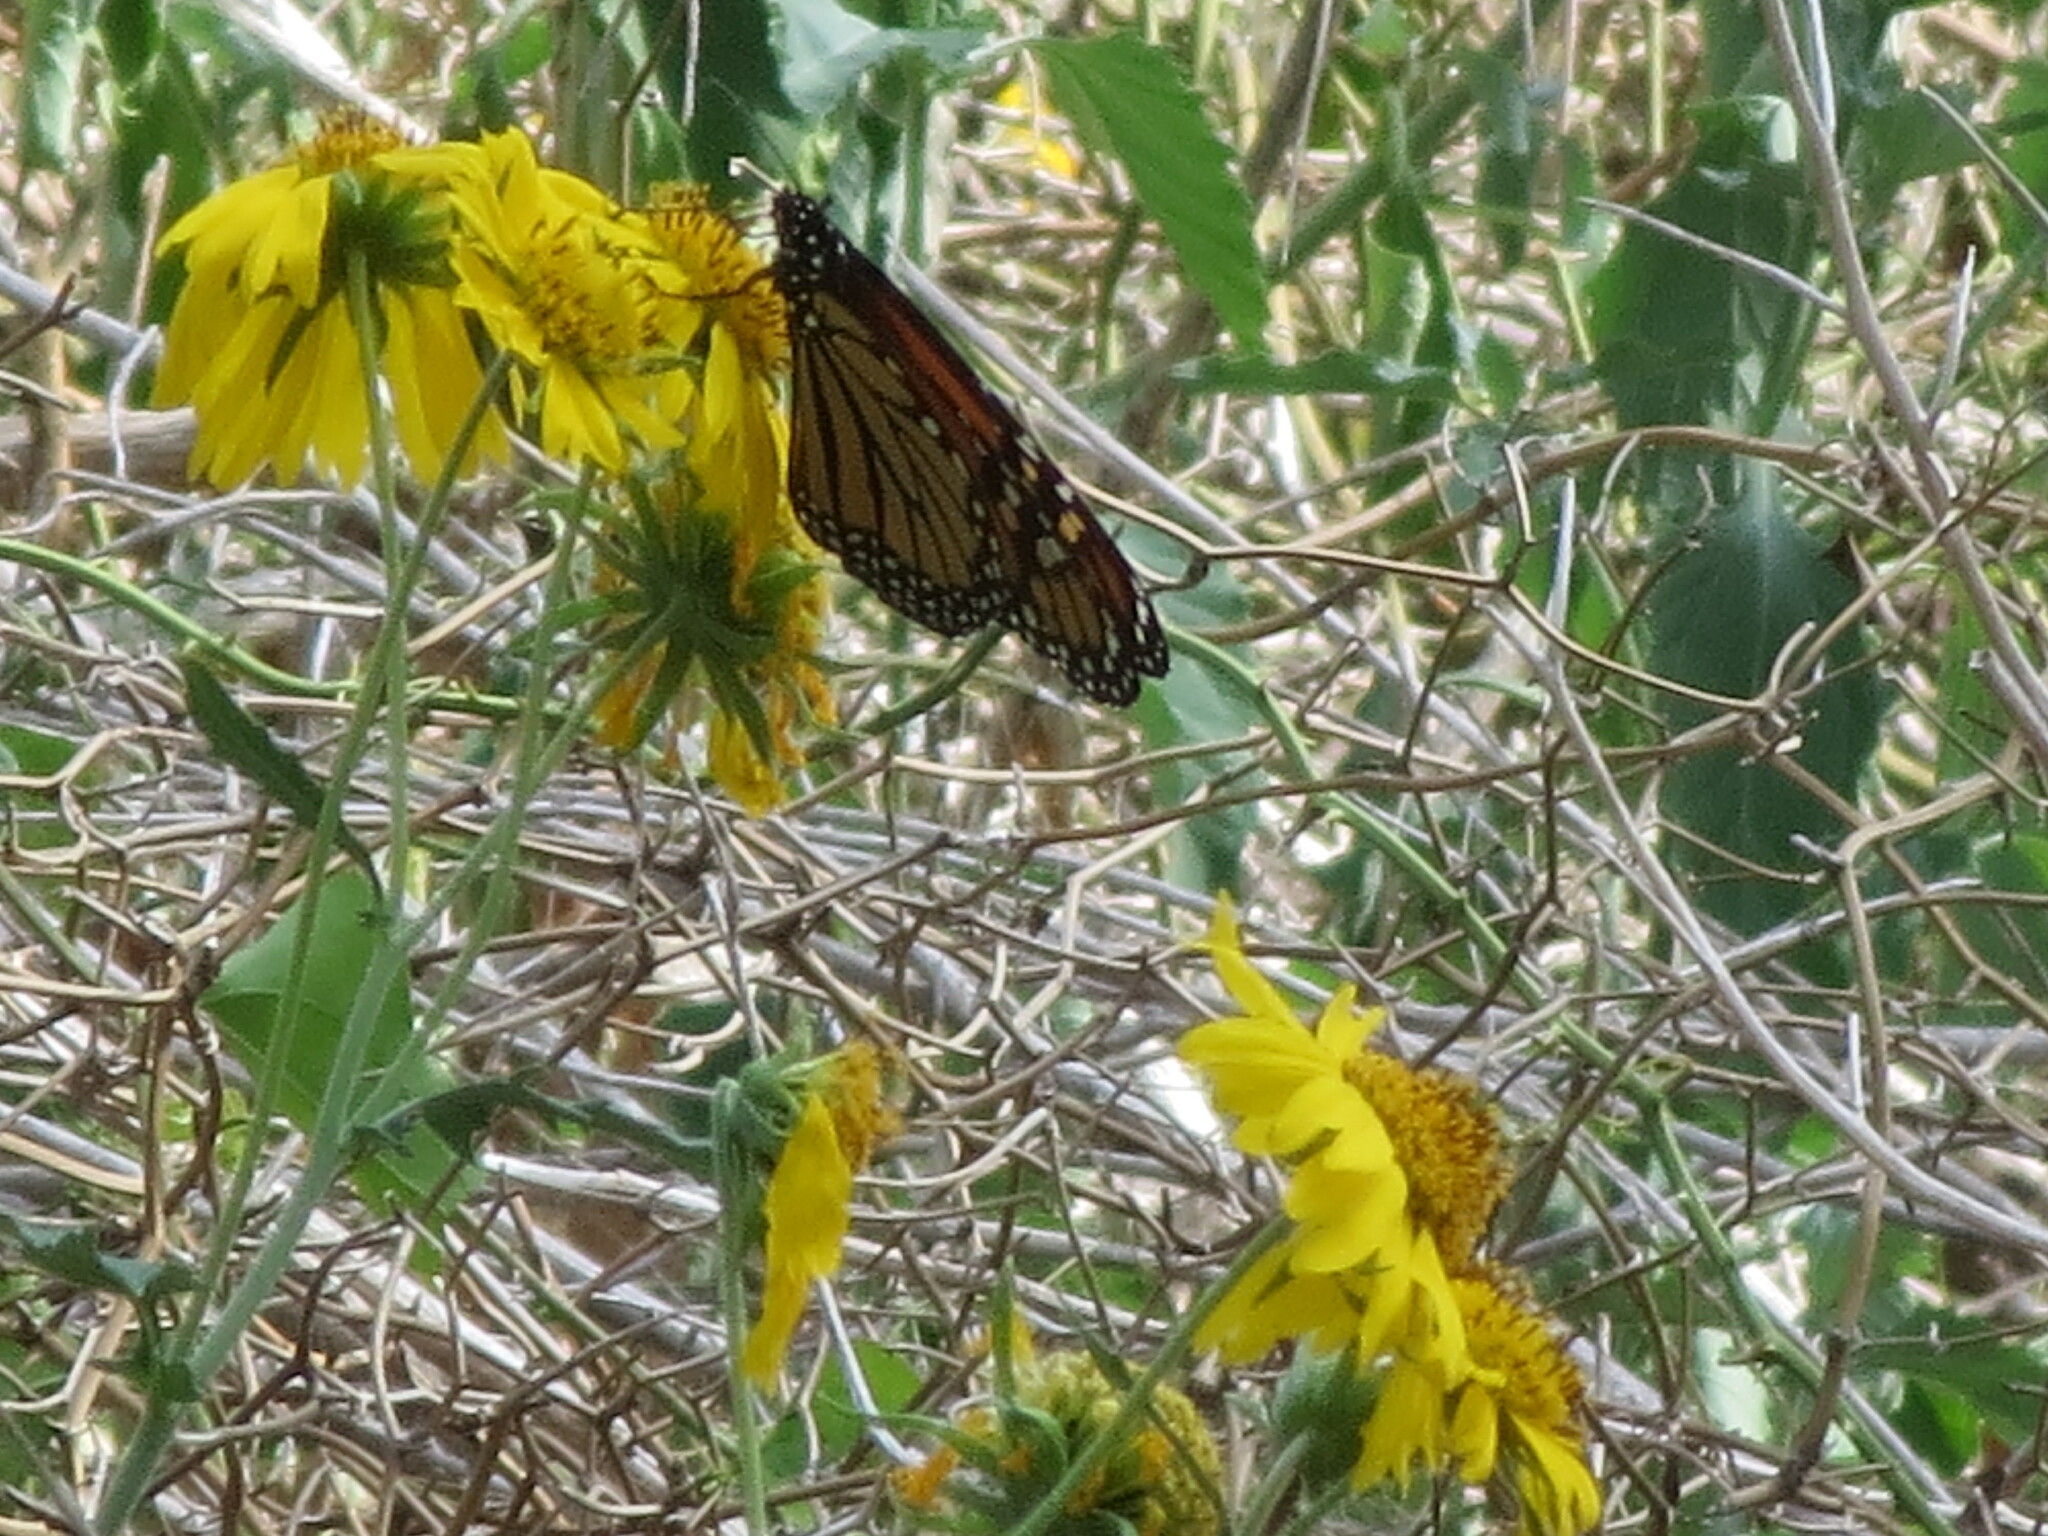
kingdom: Animalia
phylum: Arthropoda
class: Insecta
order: Lepidoptera
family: Nymphalidae
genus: Danaus
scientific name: Danaus plexippus
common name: Monarch
